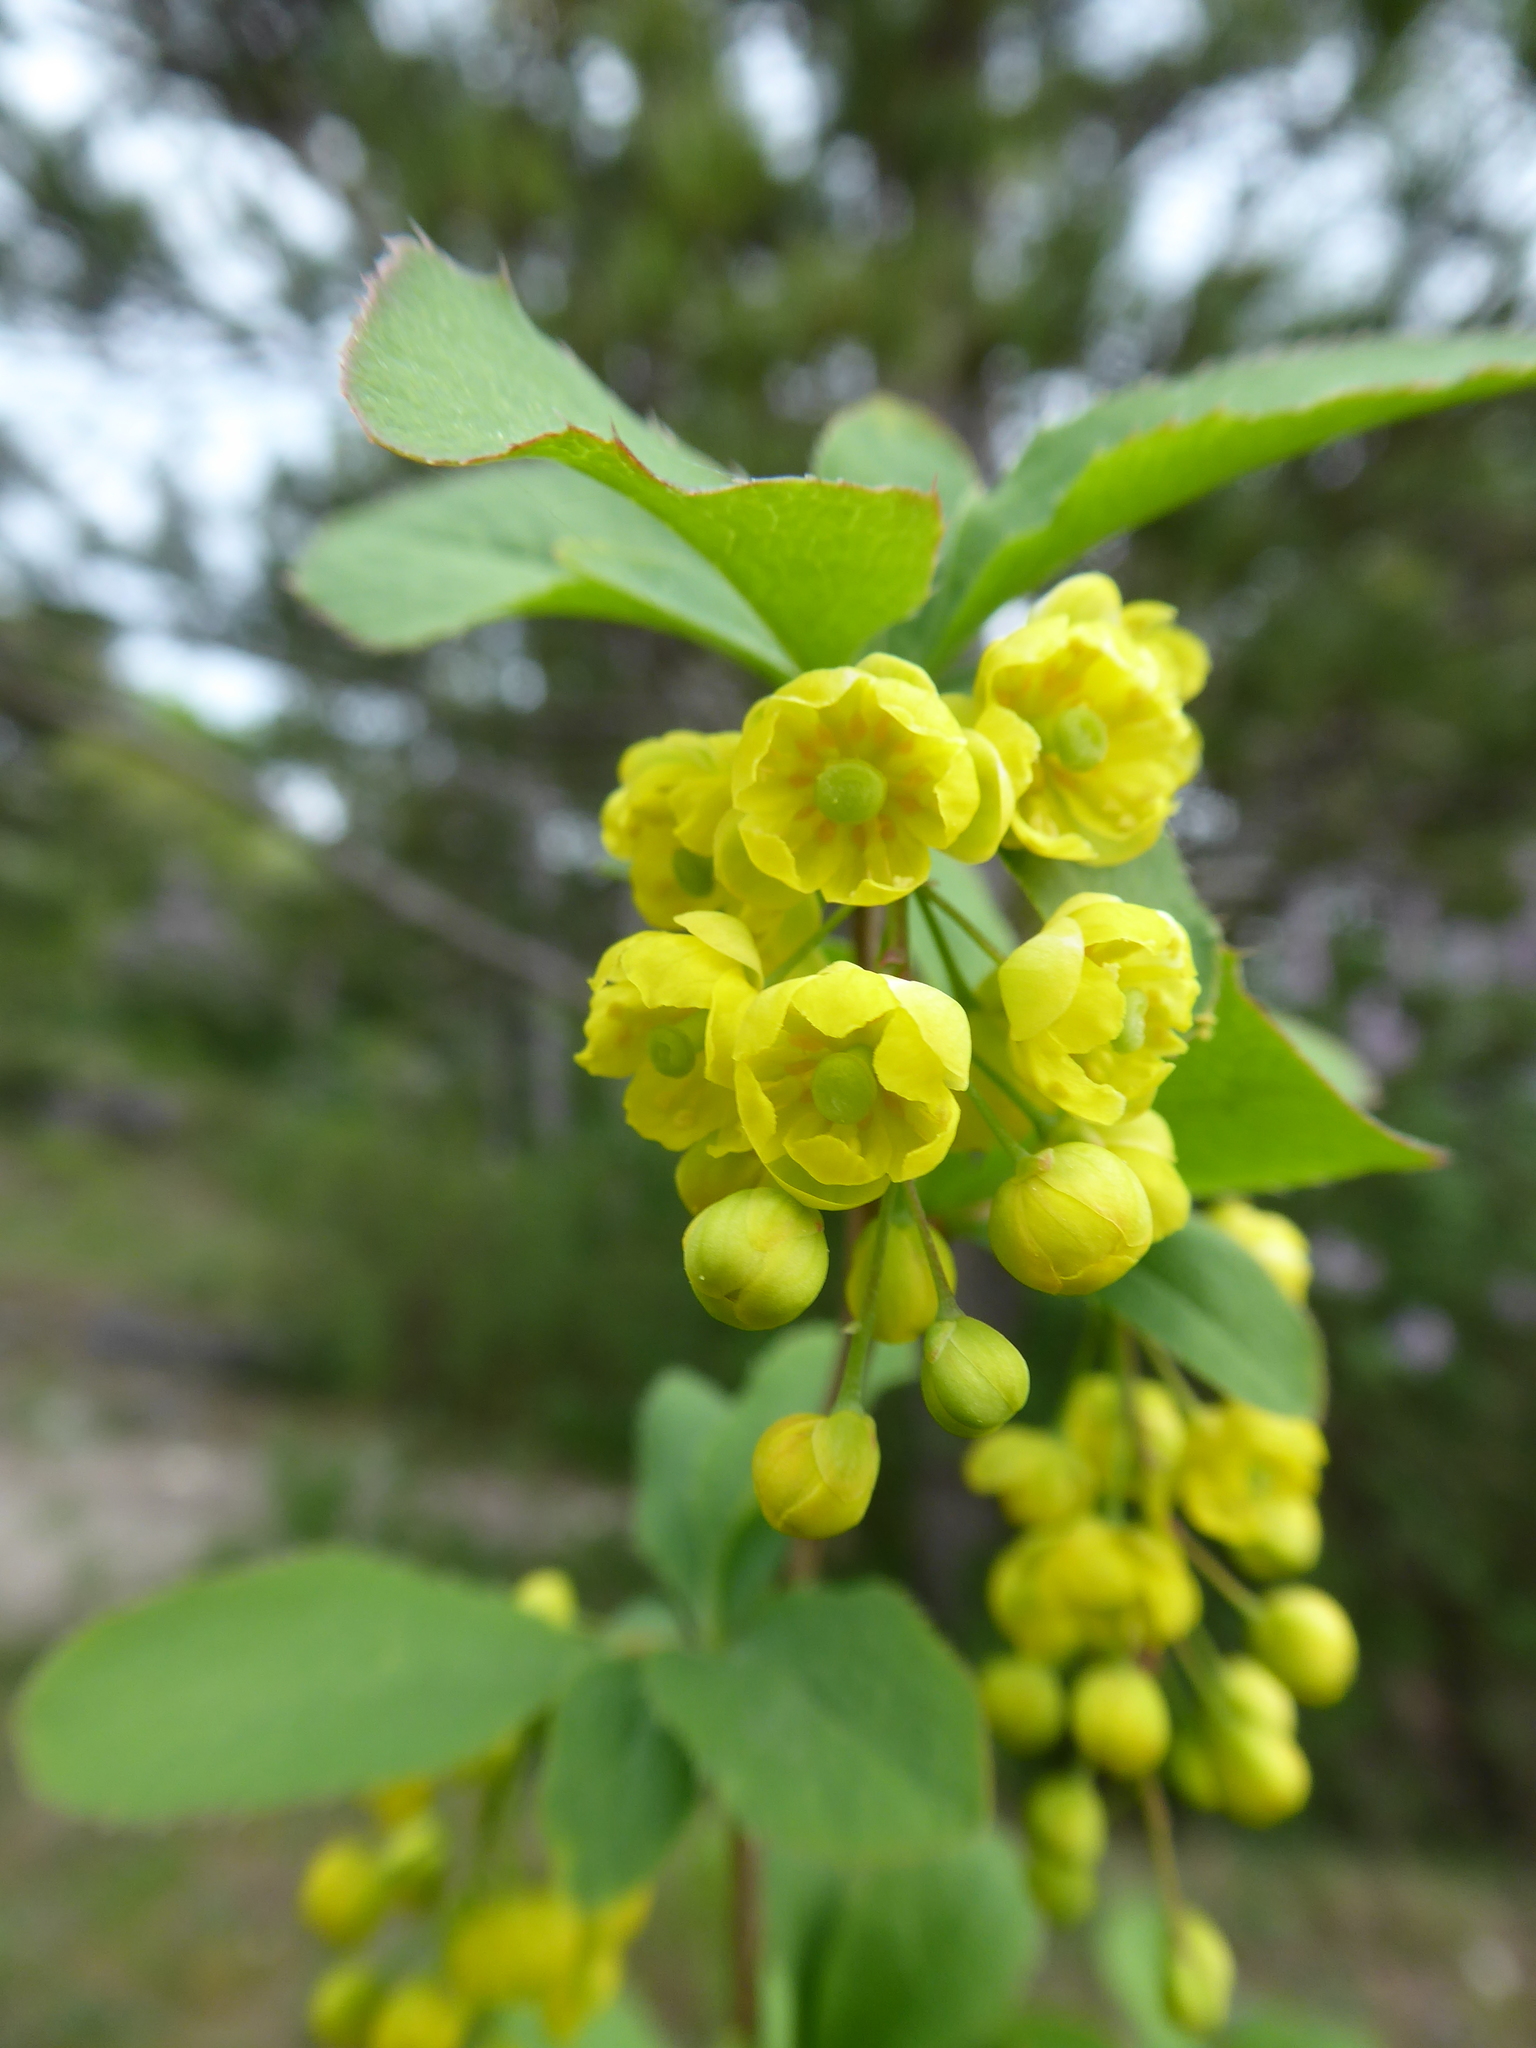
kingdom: Plantae
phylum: Tracheophyta
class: Magnoliopsida
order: Ranunculales
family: Berberidaceae
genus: Berberis
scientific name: Berberis vulgaris
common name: Barberry
